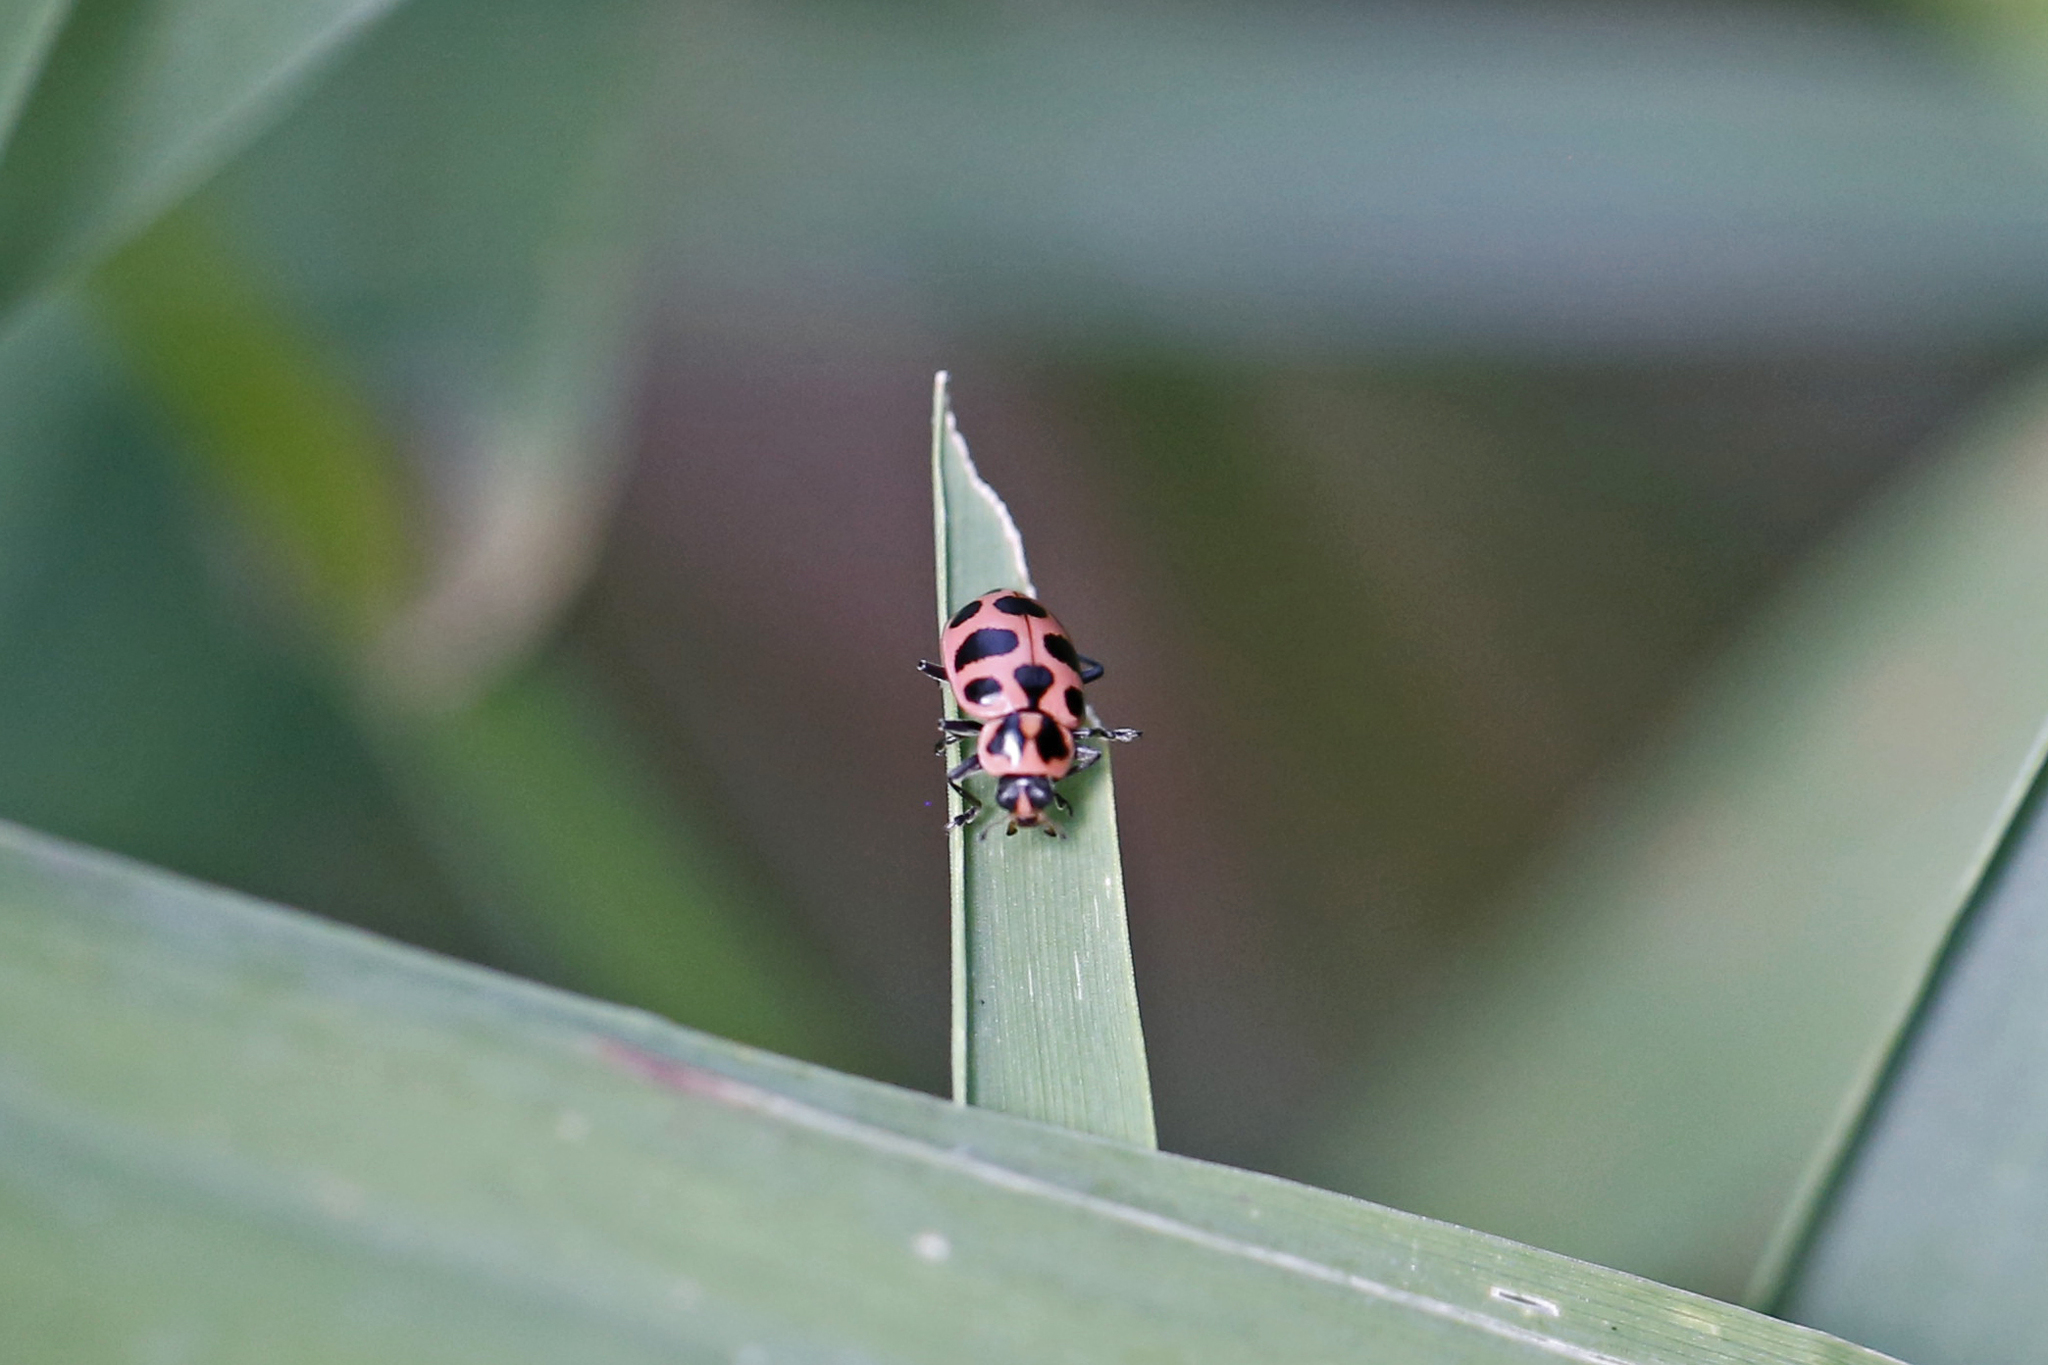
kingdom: Animalia
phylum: Arthropoda
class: Insecta
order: Coleoptera
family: Coccinellidae
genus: Coleomegilla
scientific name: Coleomegilla maculata
